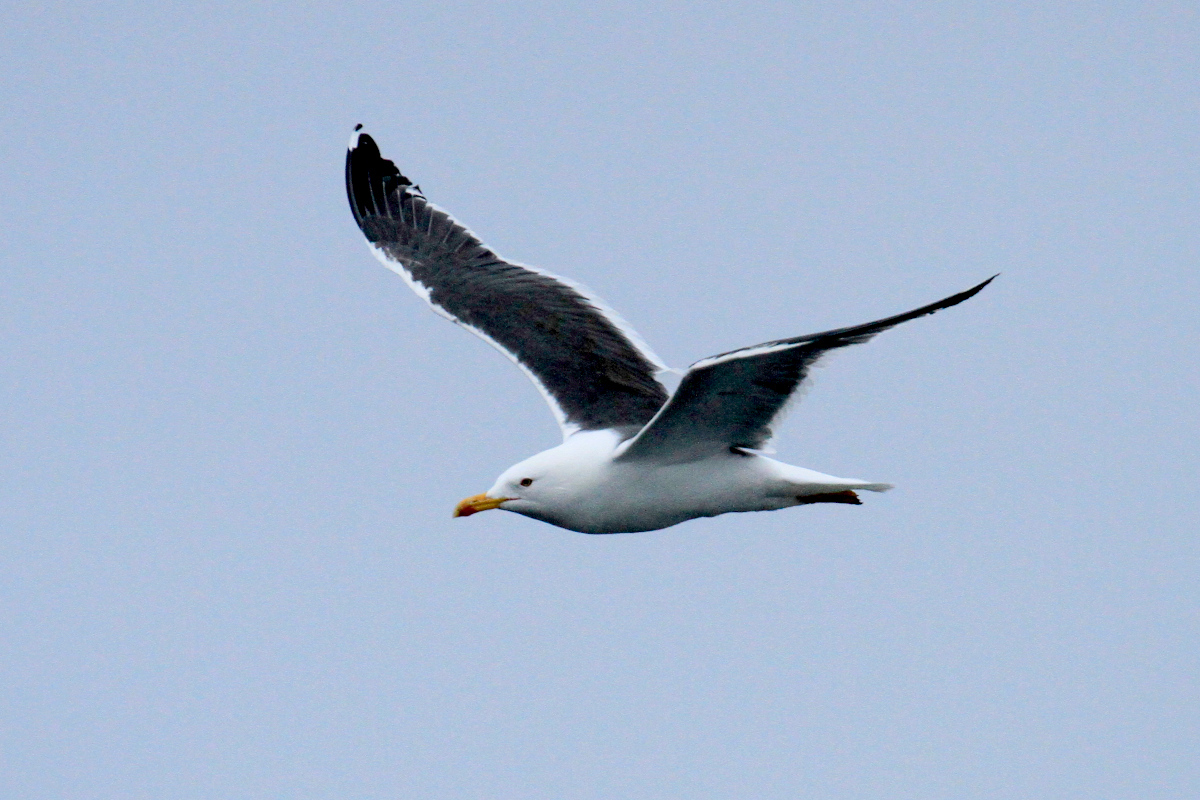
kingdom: Animalia
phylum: Chordata
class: Aves
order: Charadriiformes
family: Laridae
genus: Larus
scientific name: Larus fuscus
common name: Lesser black-backed gull
